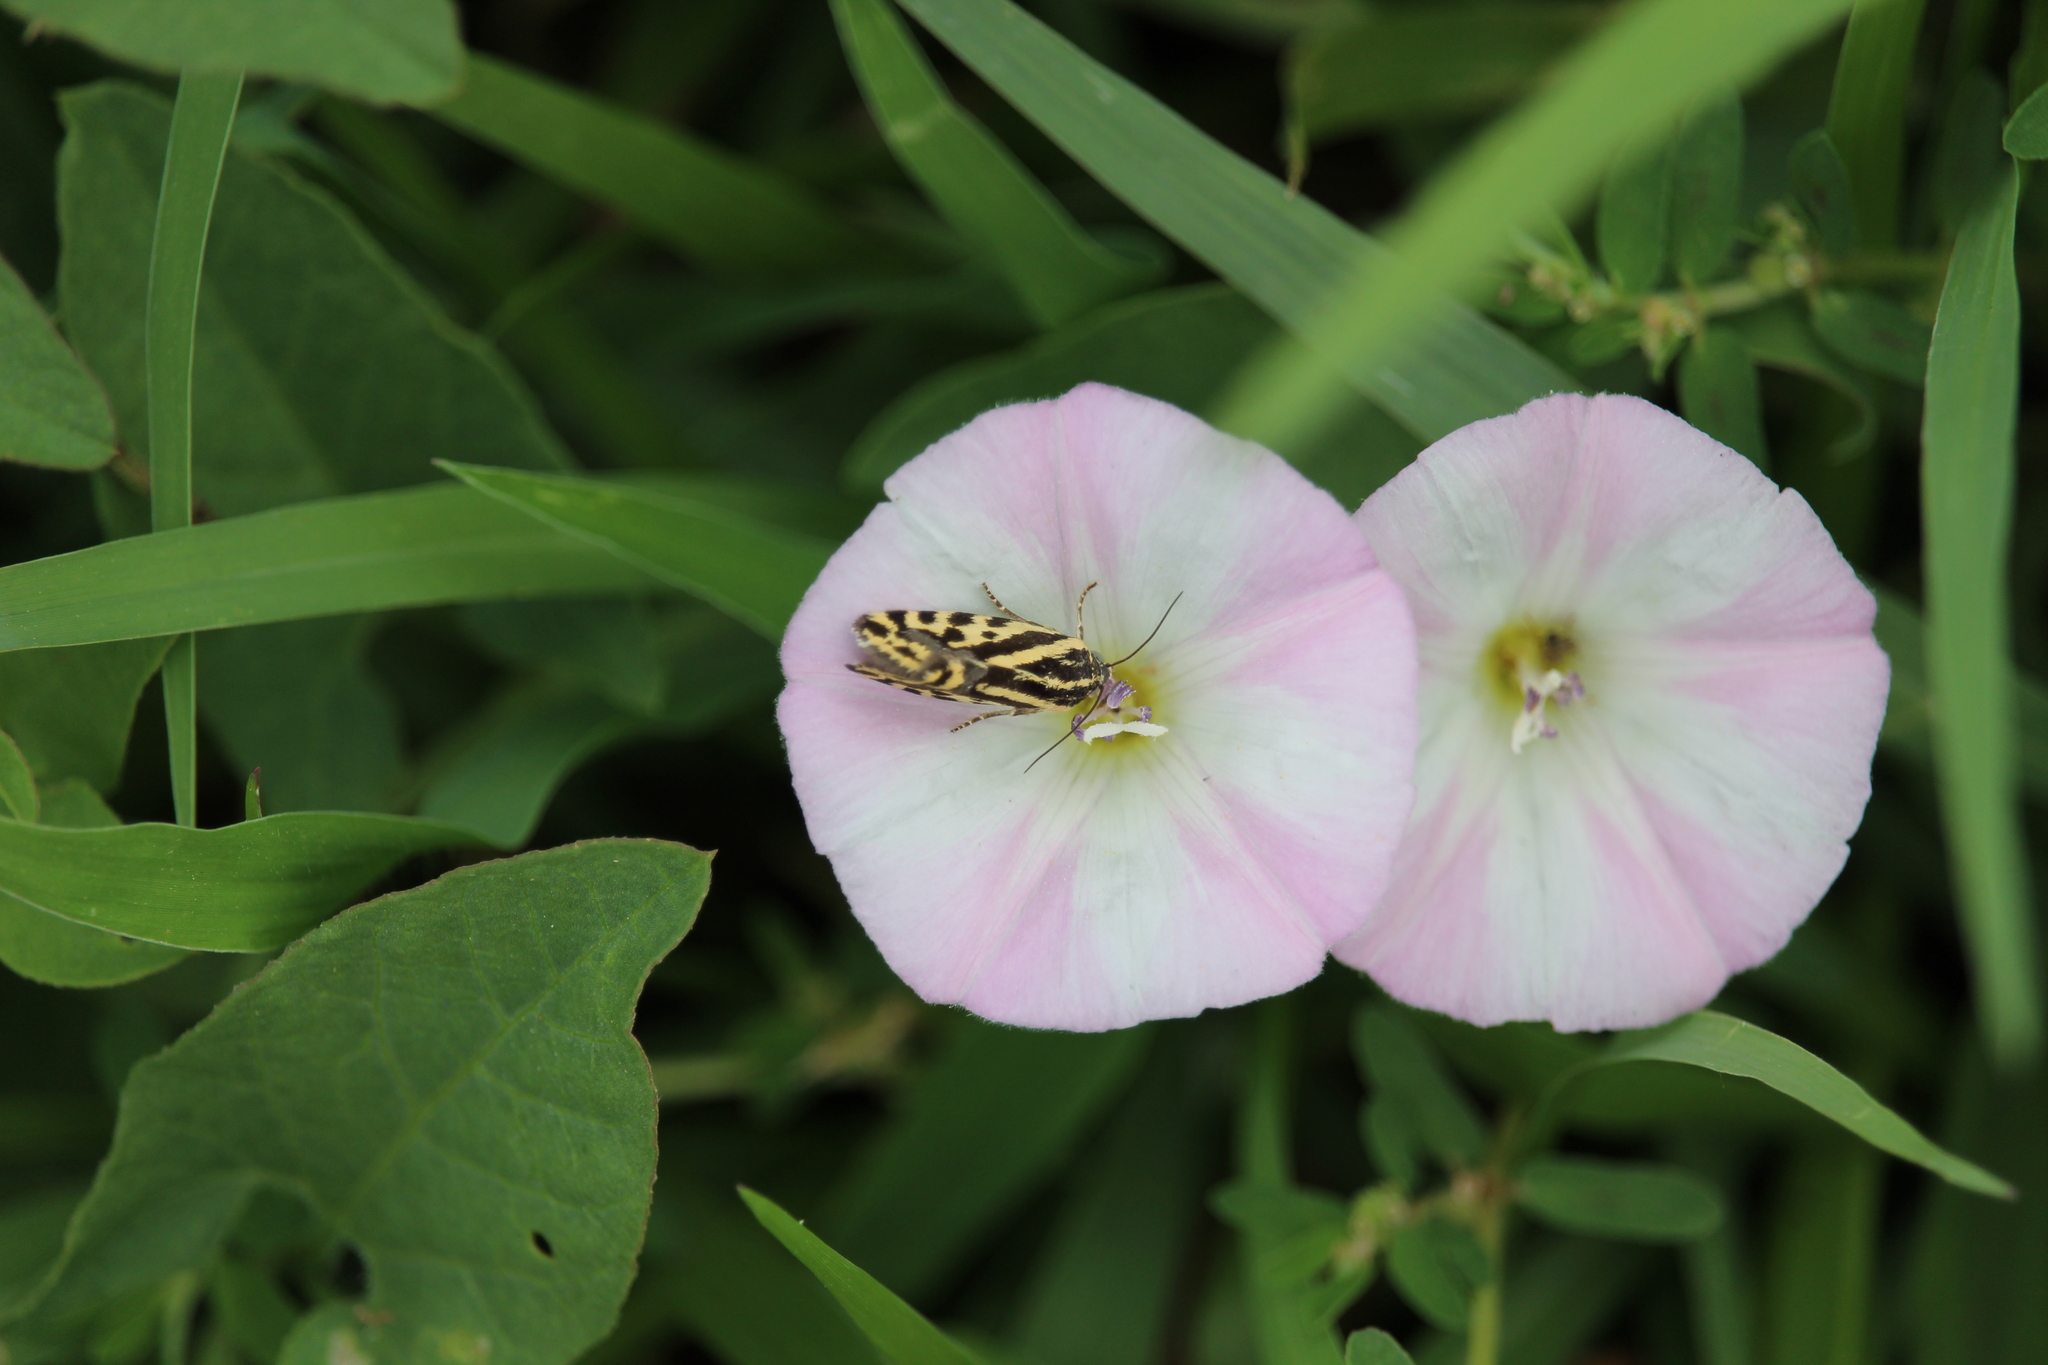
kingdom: Animalia
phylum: Arthropoda
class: Insecta
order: Lepidoptera
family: Noctuidae
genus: Acontia
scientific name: Acontia trabealis
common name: Spotted sulphur
